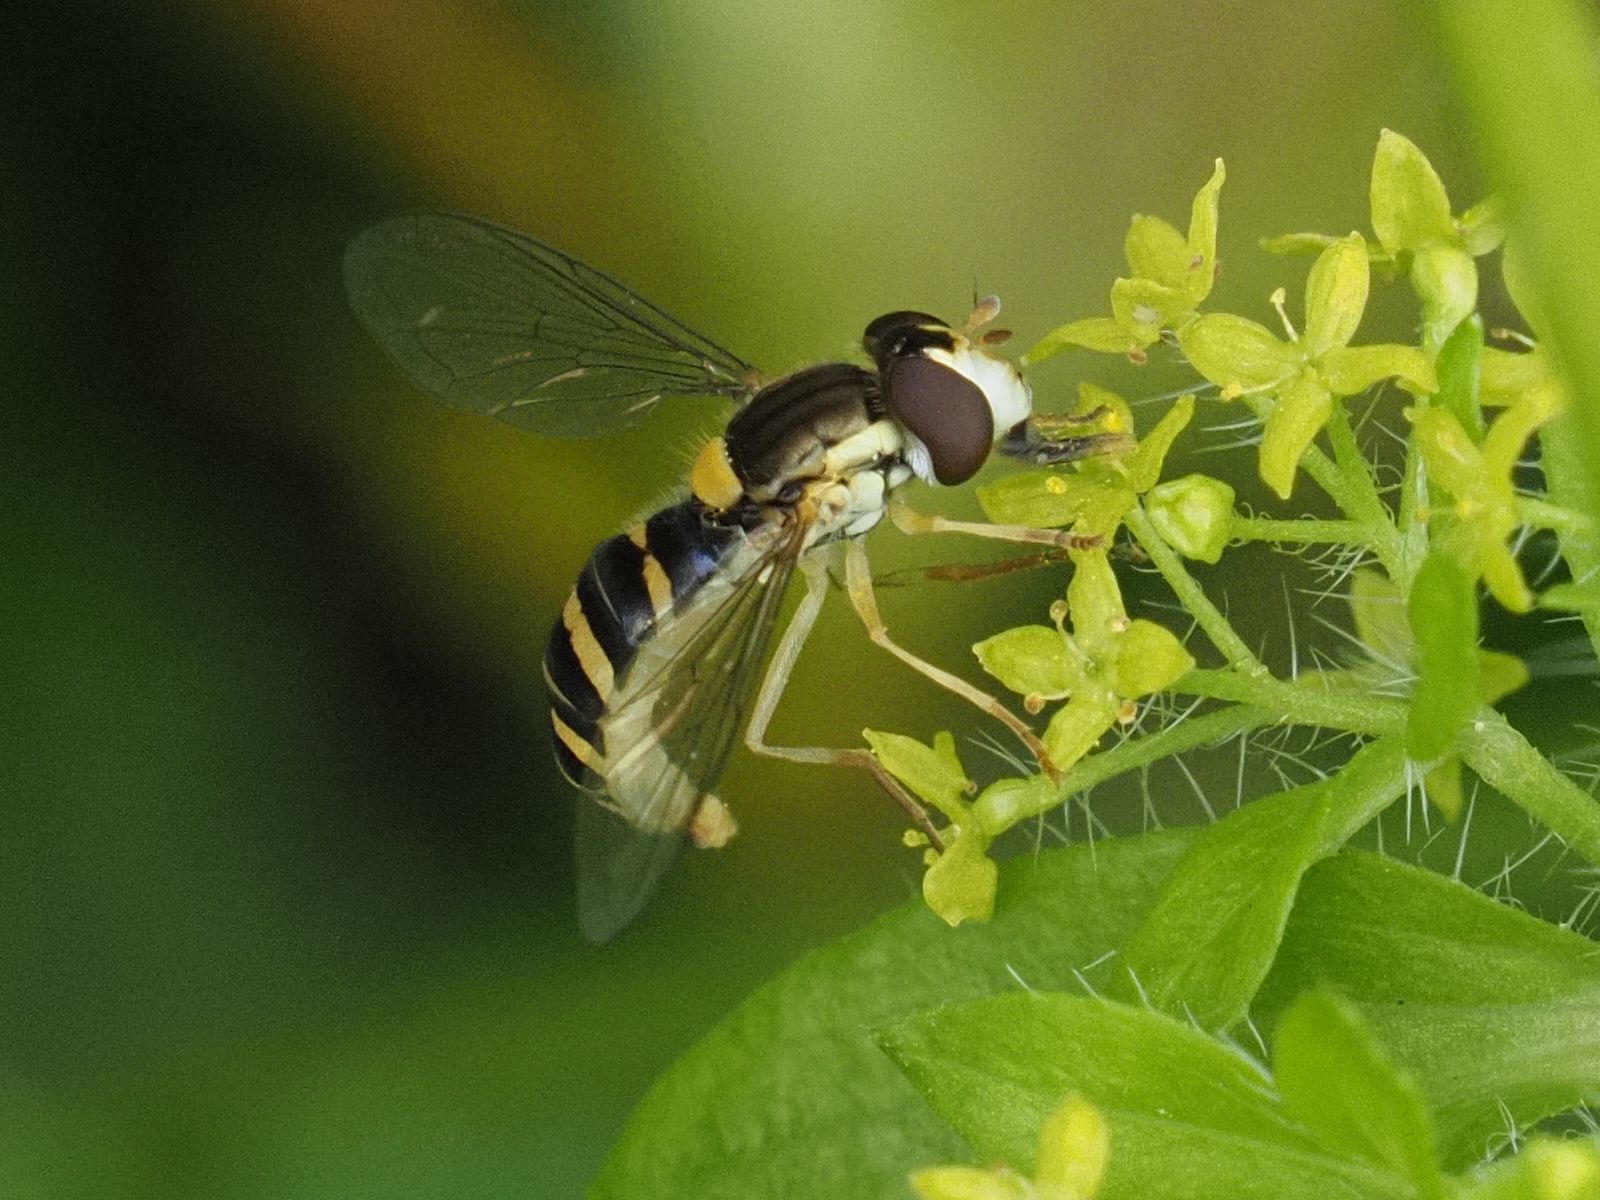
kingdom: Animalia
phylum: Arthropoda
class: Insecta
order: Diptera
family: Syrphidae
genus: Sphaerophoria
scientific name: Sphaerophoria
